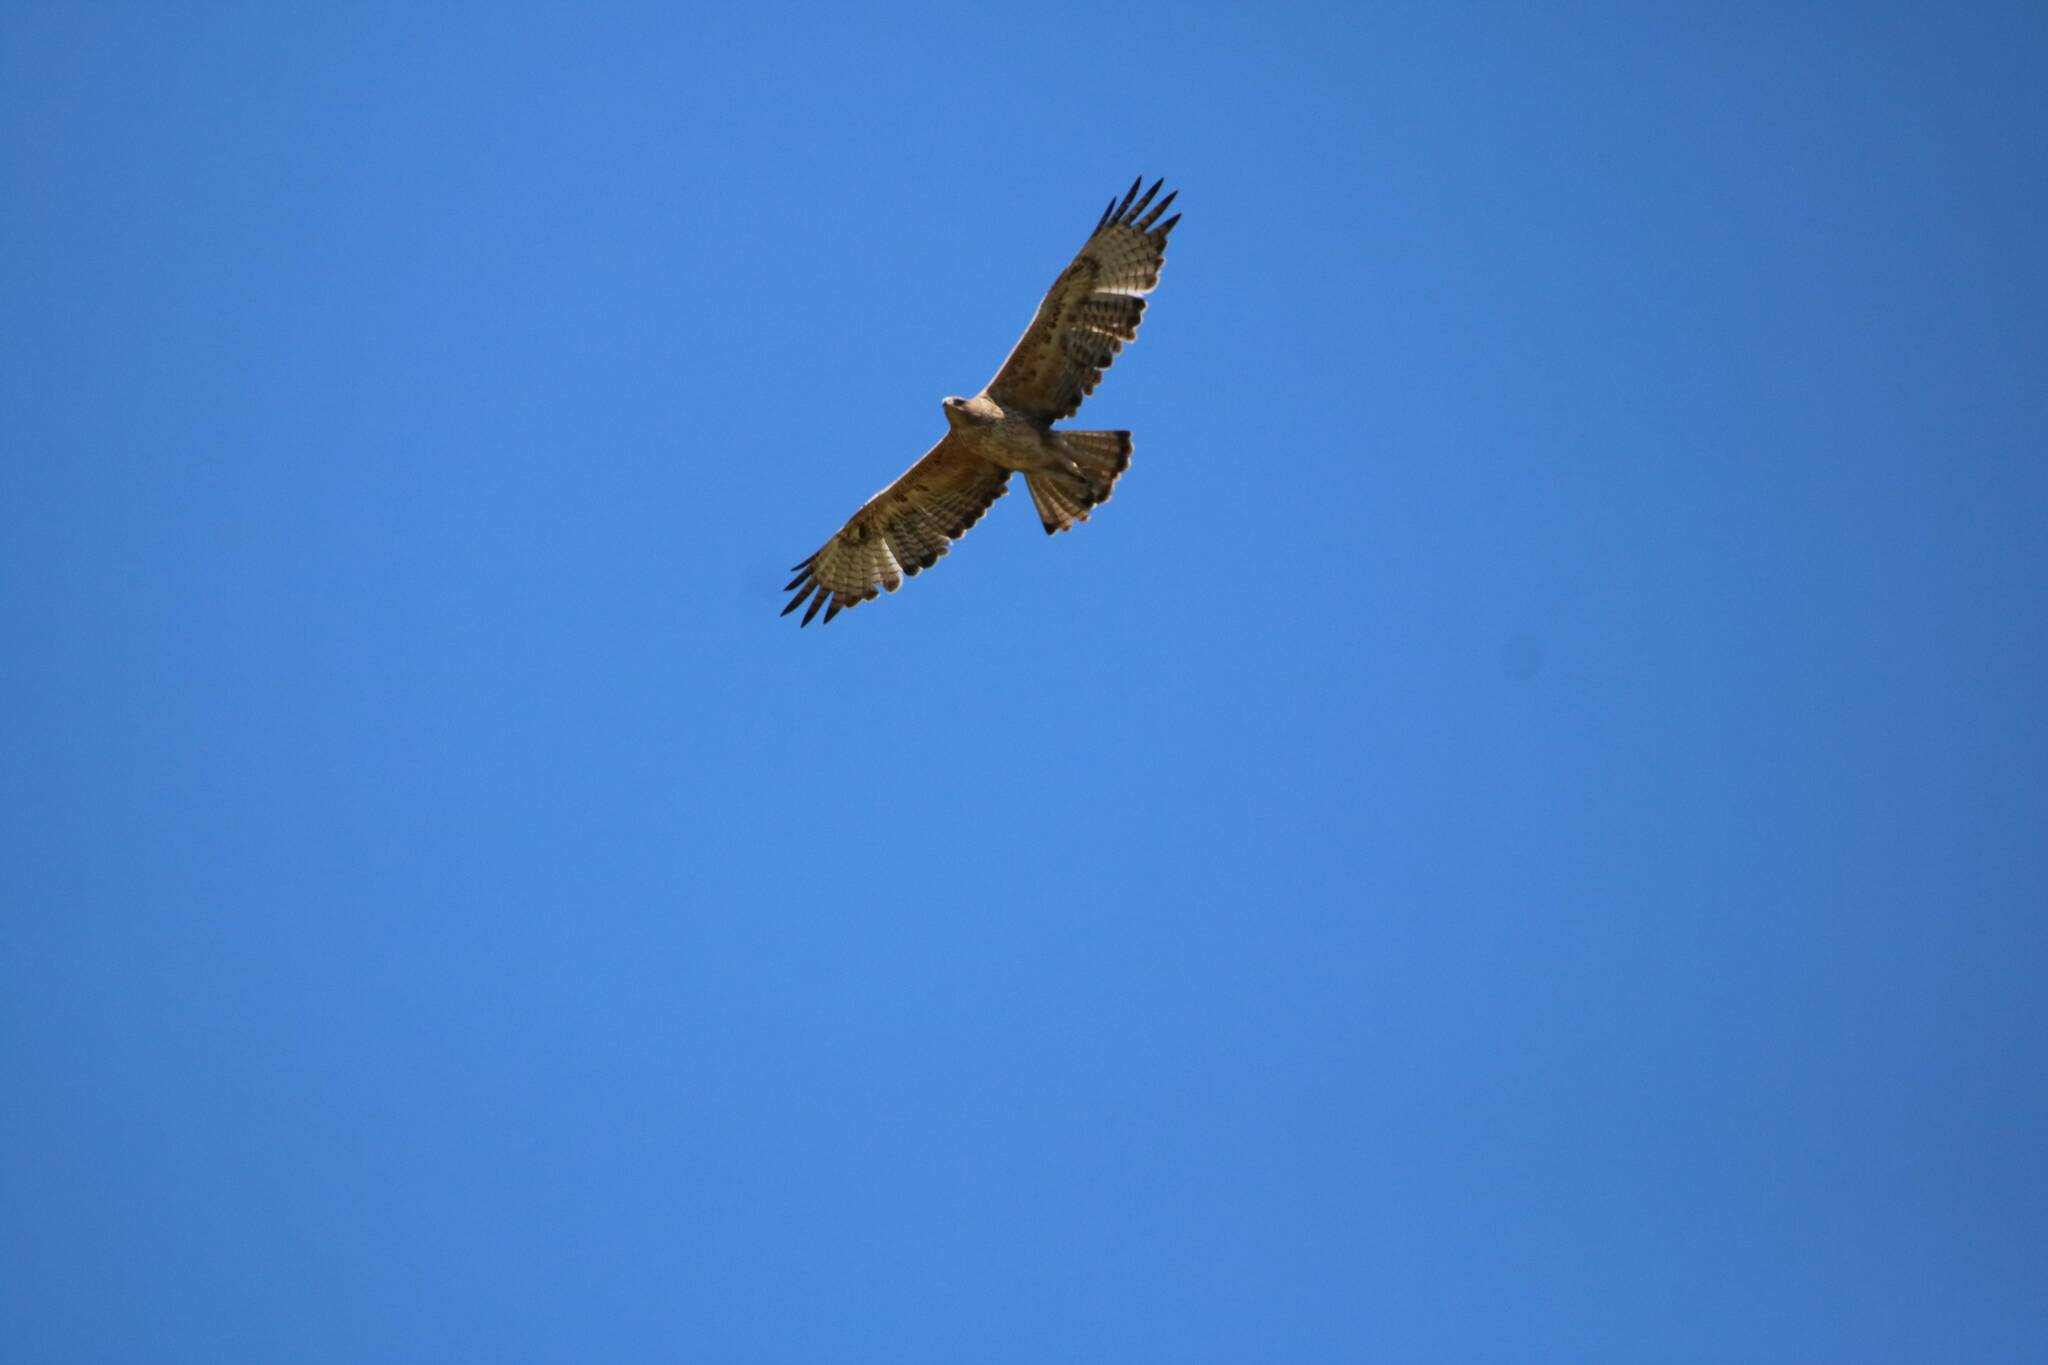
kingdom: Animalia
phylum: Chordata
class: Aves
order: Accipitriformes
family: Accipitridae
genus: Aquila
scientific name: Aquila fasciata
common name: Bonelli's eagle
